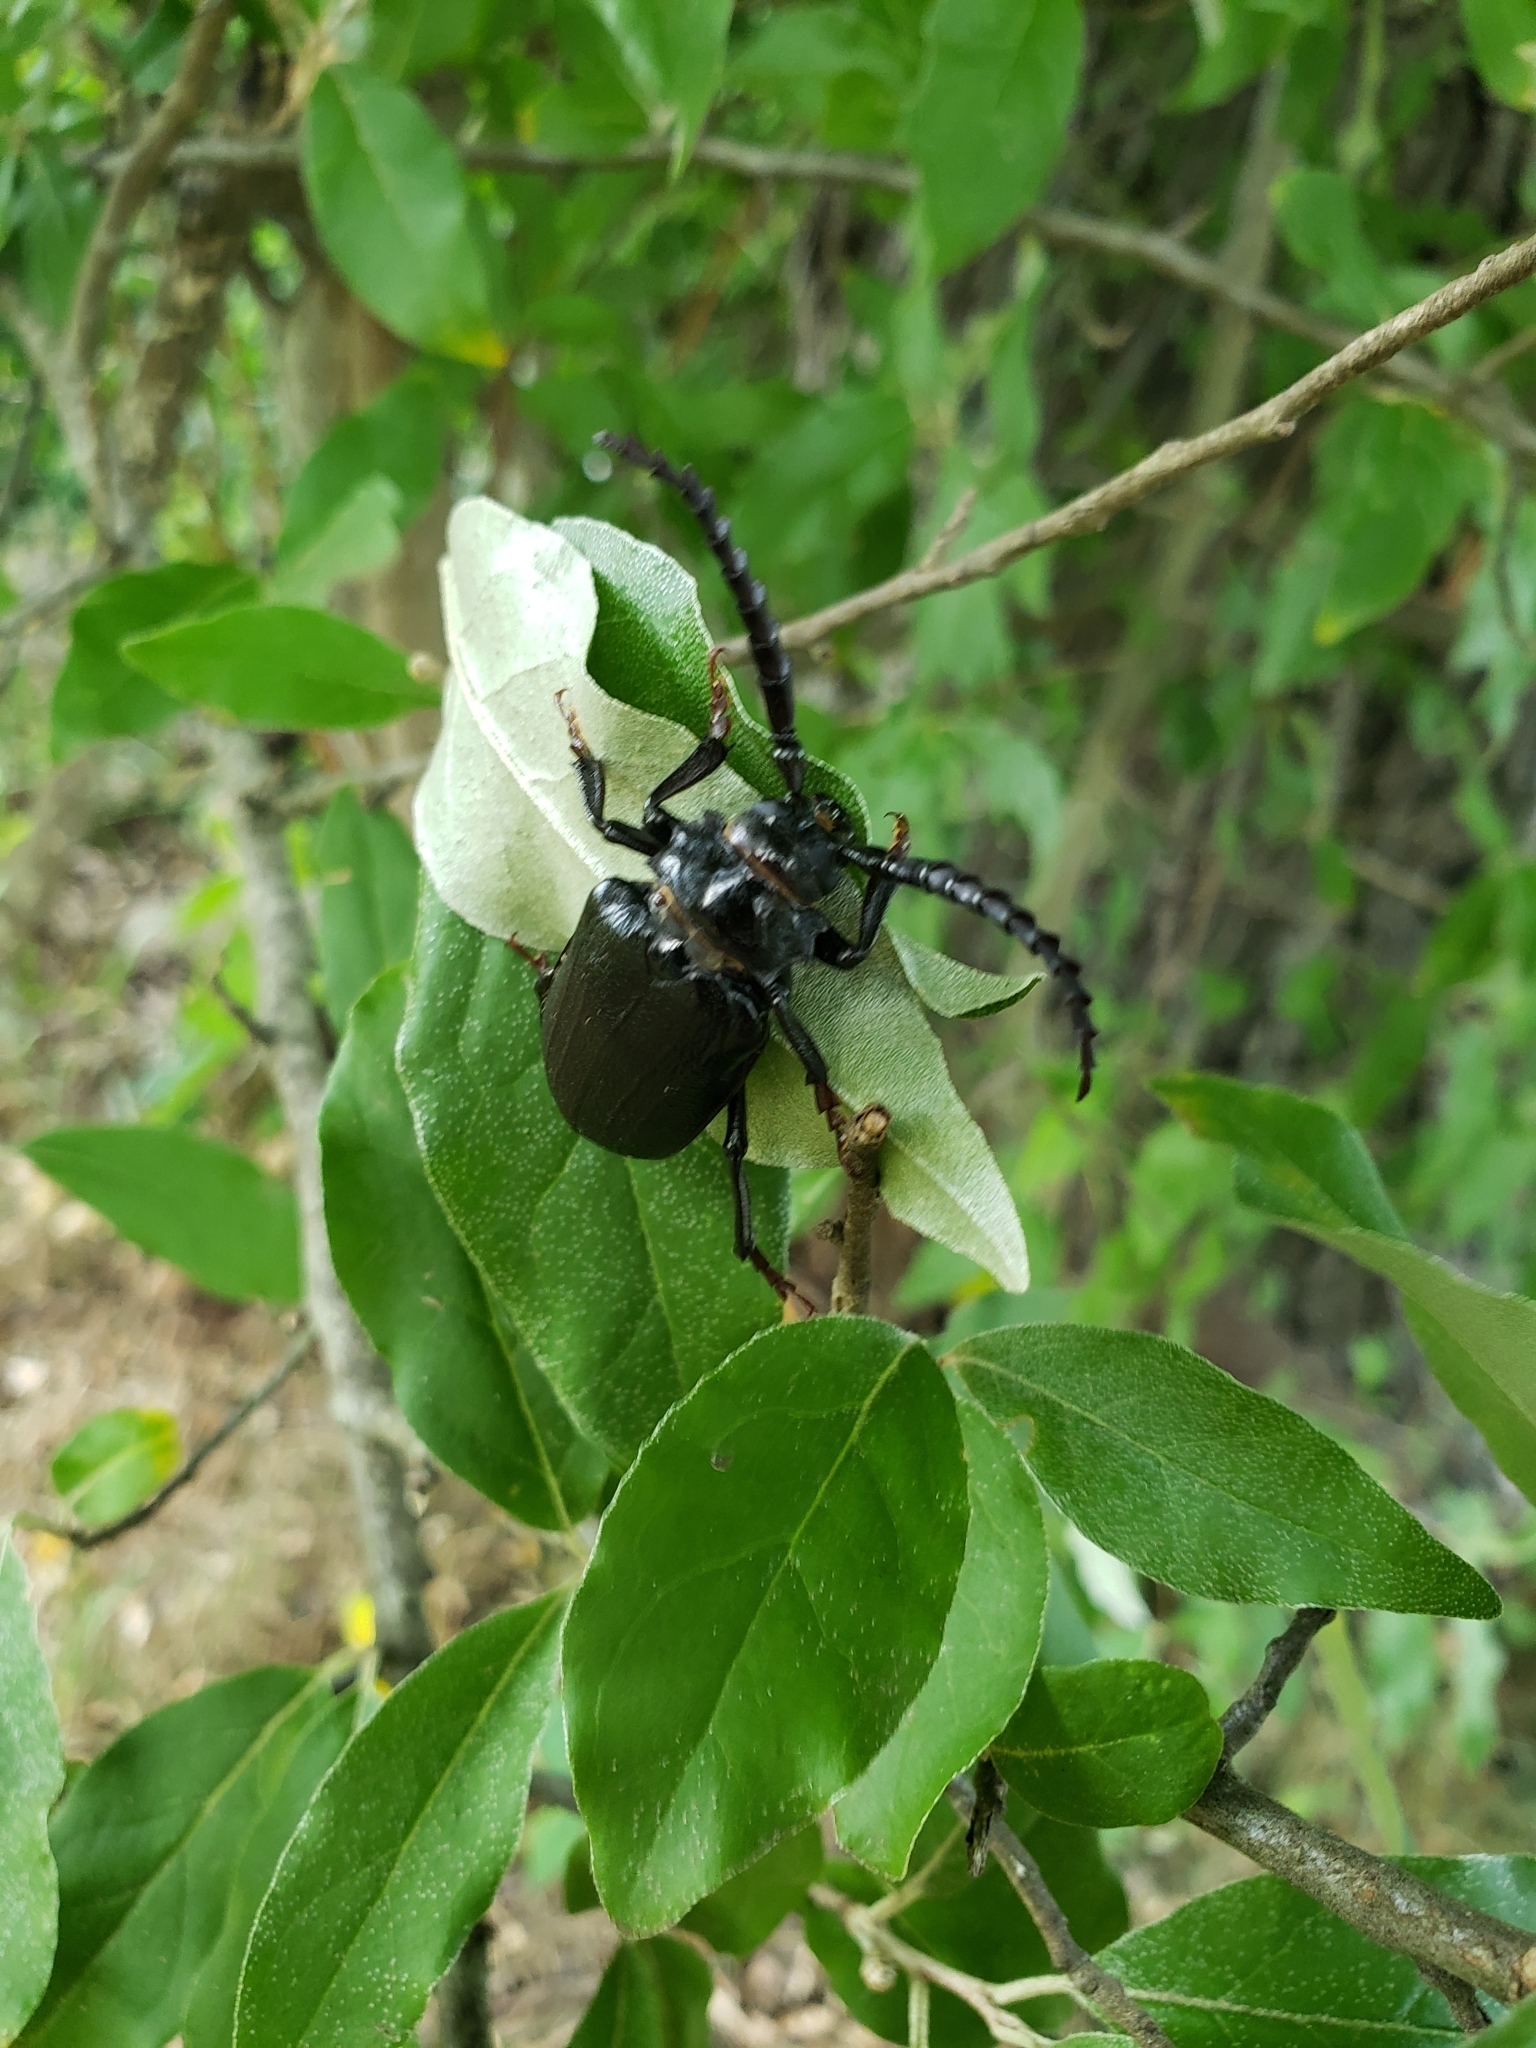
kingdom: Animalia
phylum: Arthropoda
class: Insecta
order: Coleoptera
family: Cerambycidae
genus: Prionus
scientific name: Prionus laticollis
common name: Broad necked prionus
